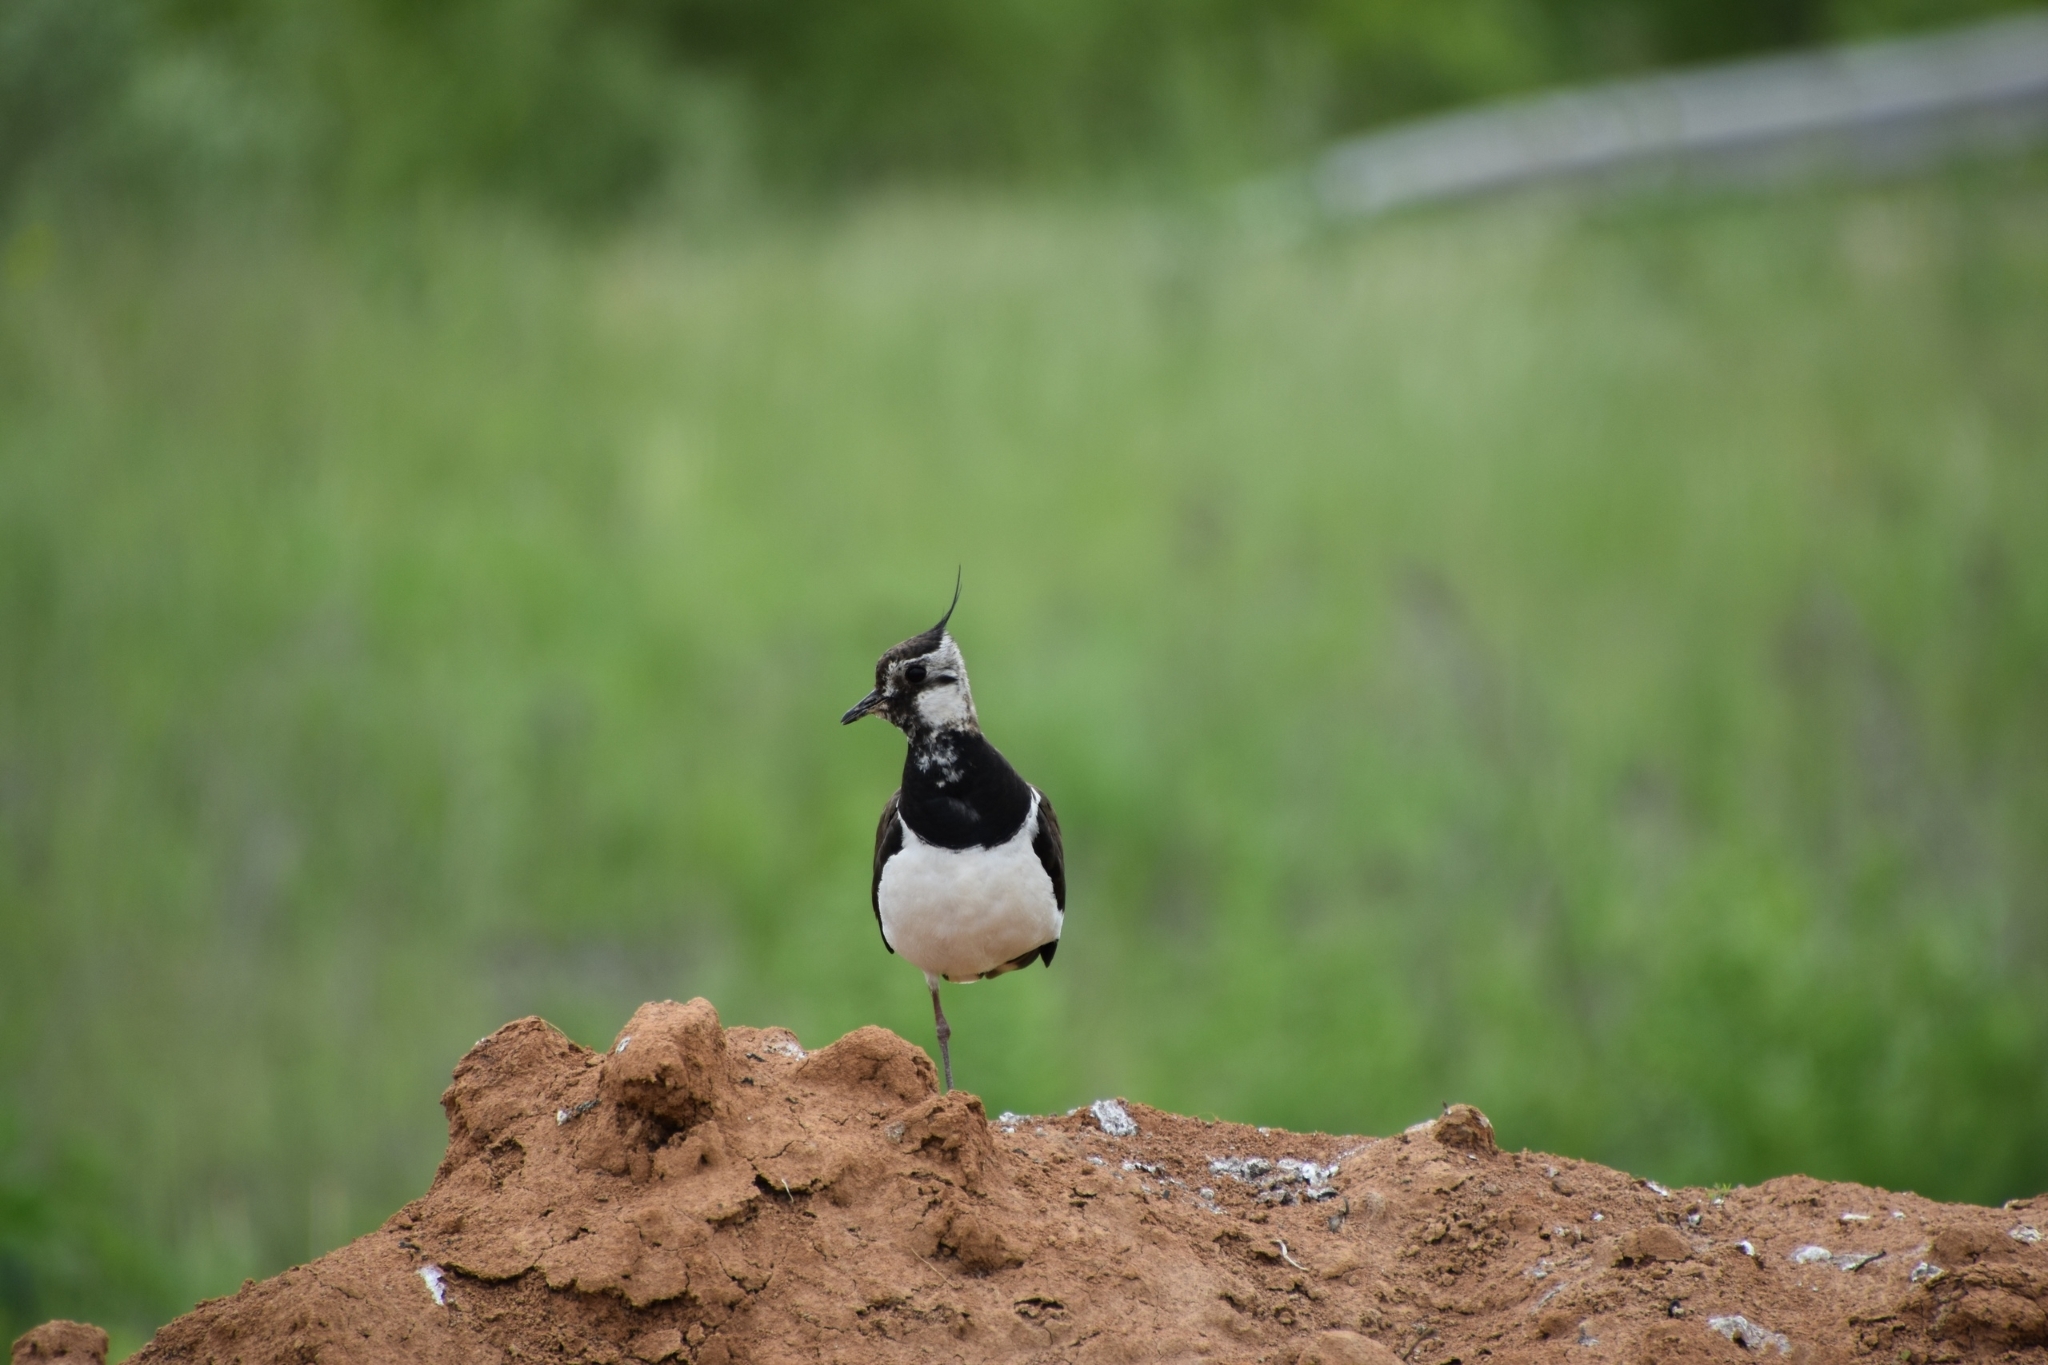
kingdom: Animalia
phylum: Chordata
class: Aves
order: Charadriiformes
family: Charadriidae
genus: Vanellus
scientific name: Vanellus vanellus
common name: Northern lapwing
